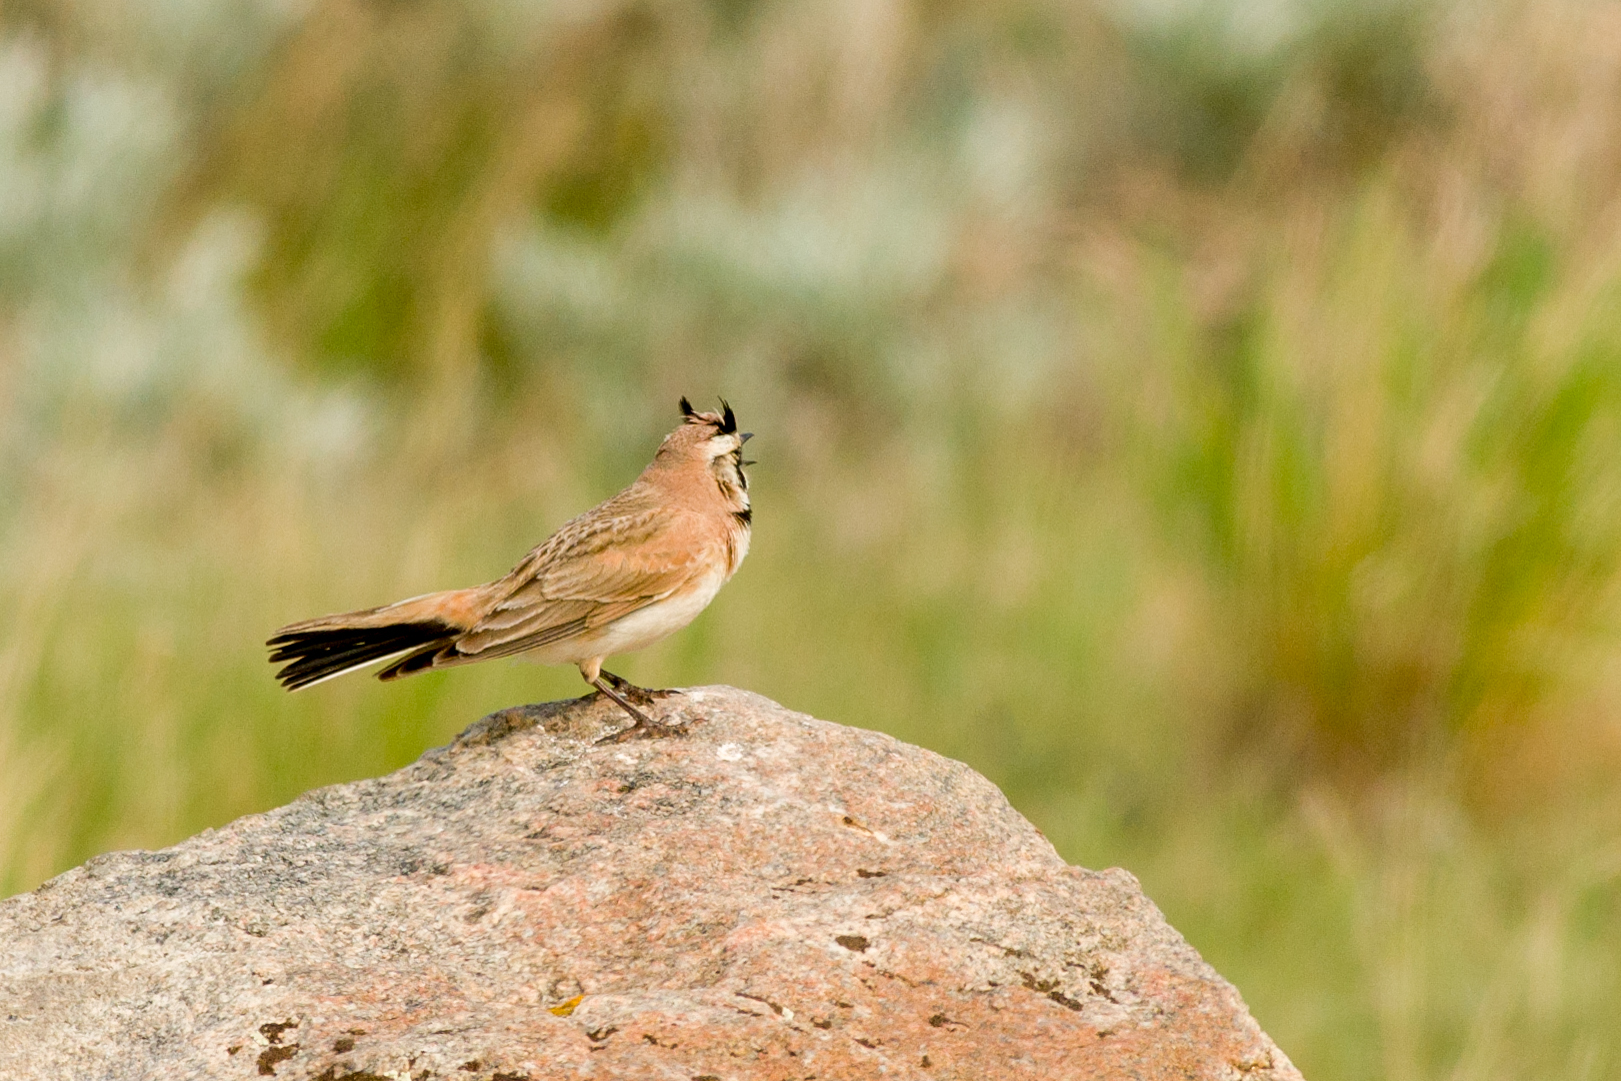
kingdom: Animalia
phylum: Chordata
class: Aves
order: Passeriformes
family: Alaudidae
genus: Eremophila
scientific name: Eremophila alpestris
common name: Horned lark
